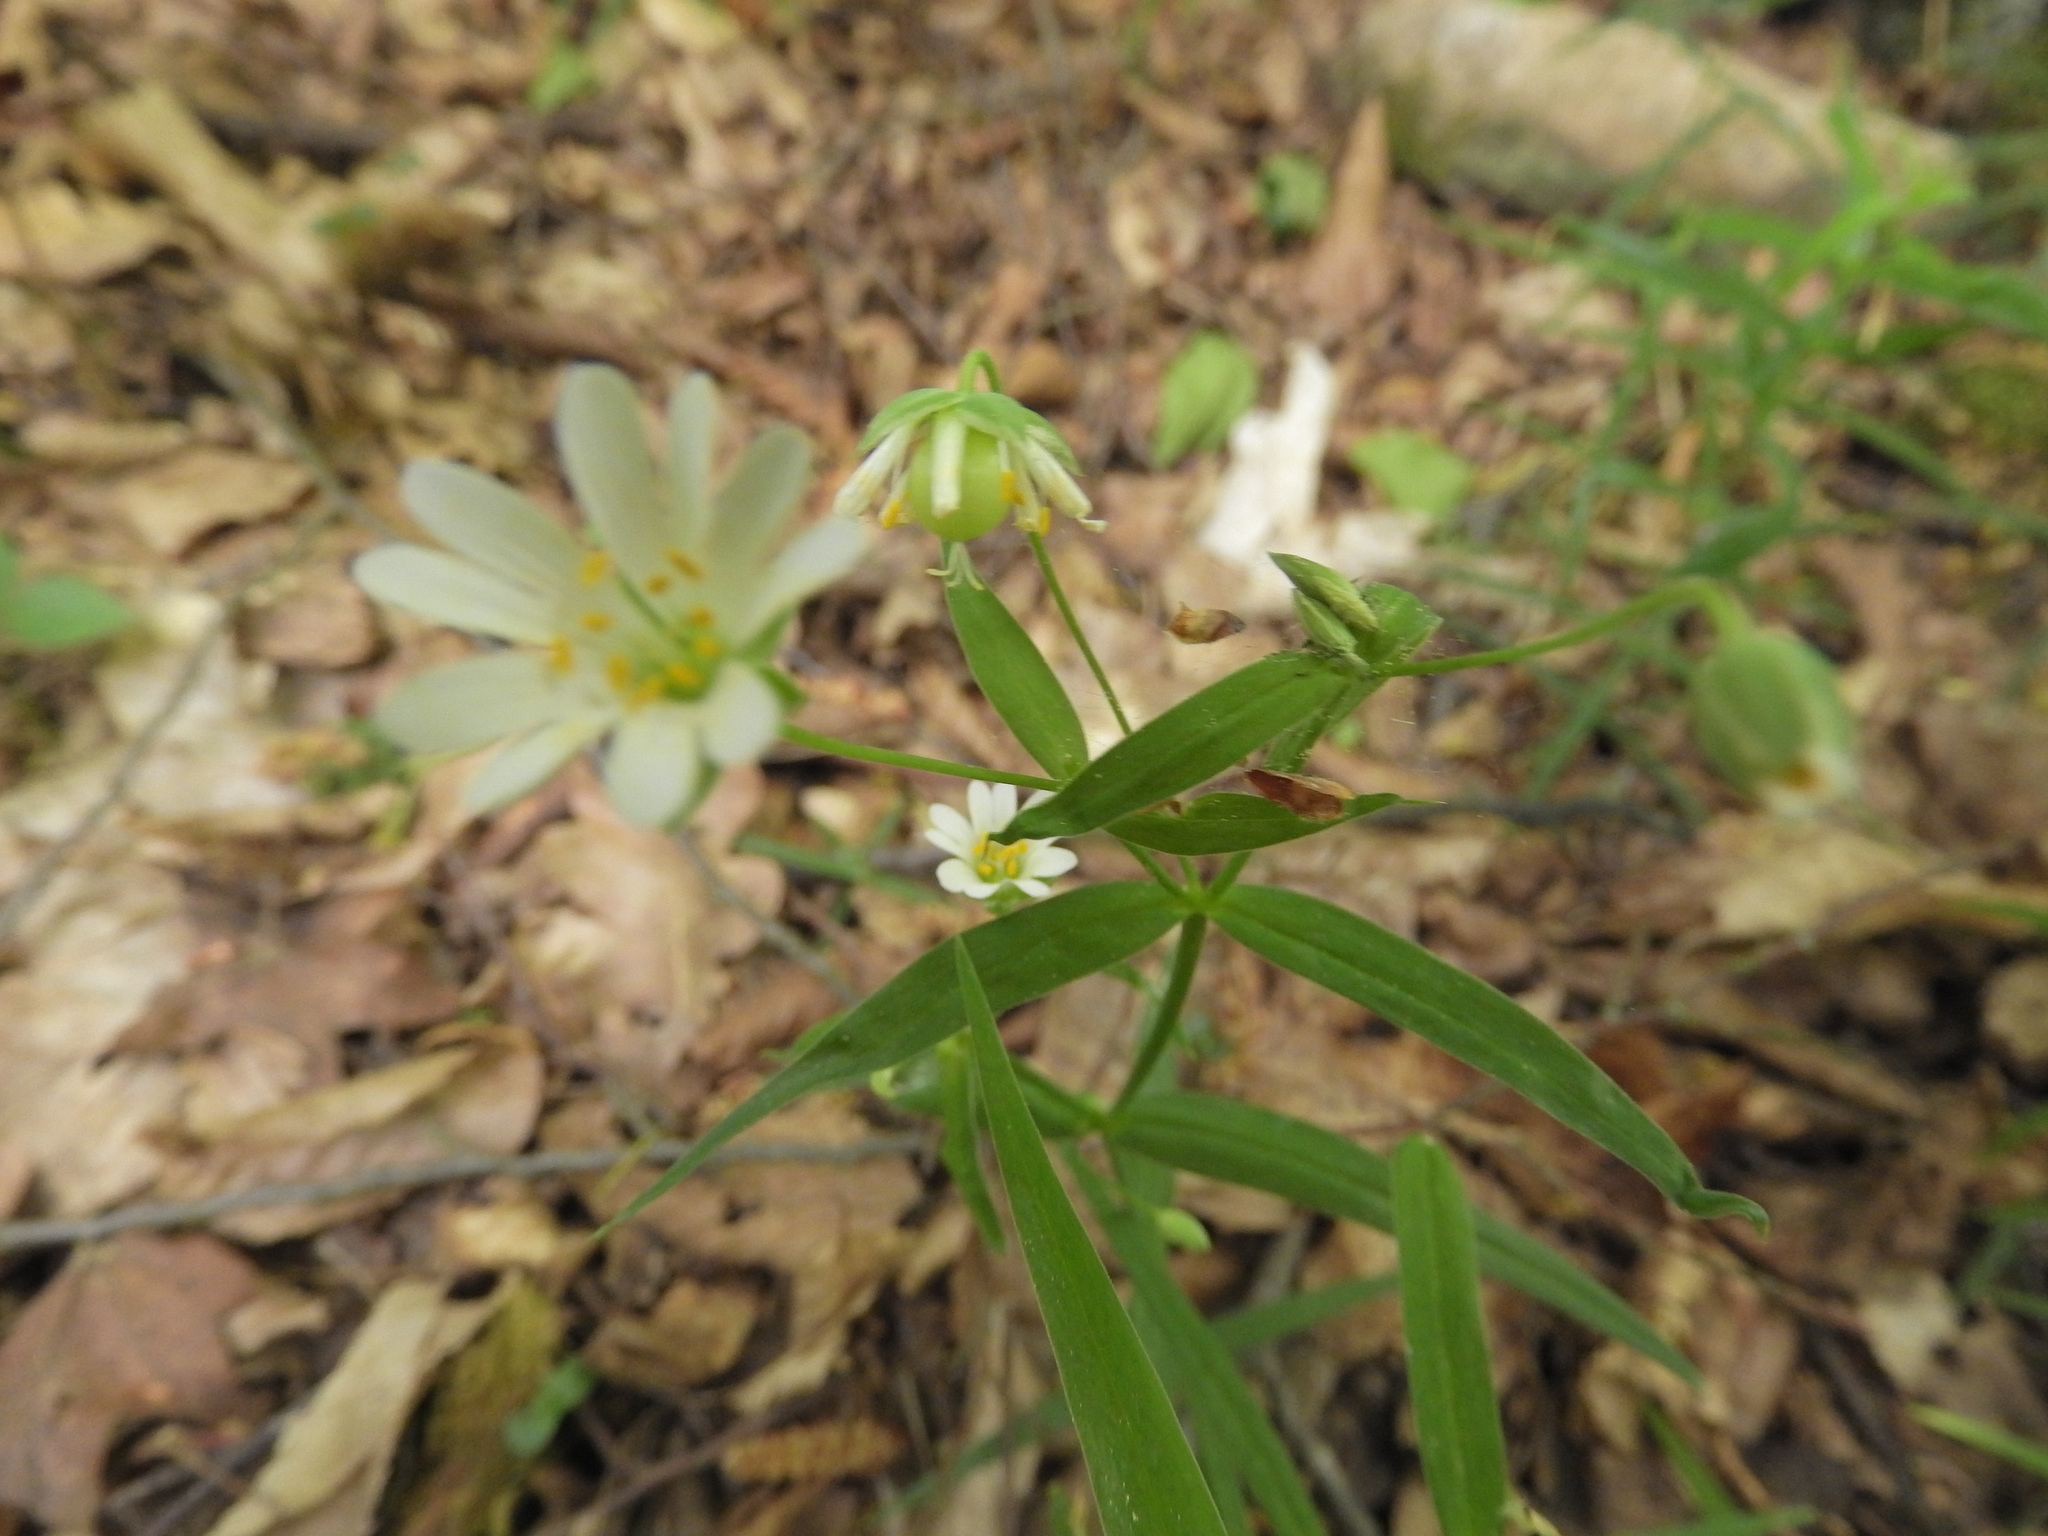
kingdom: Plantae
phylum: Tracheophyta
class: Magnoliopsida
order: Caryophyllales
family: Caryophyllaceae
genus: Rabelera
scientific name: Rabelera holostea
